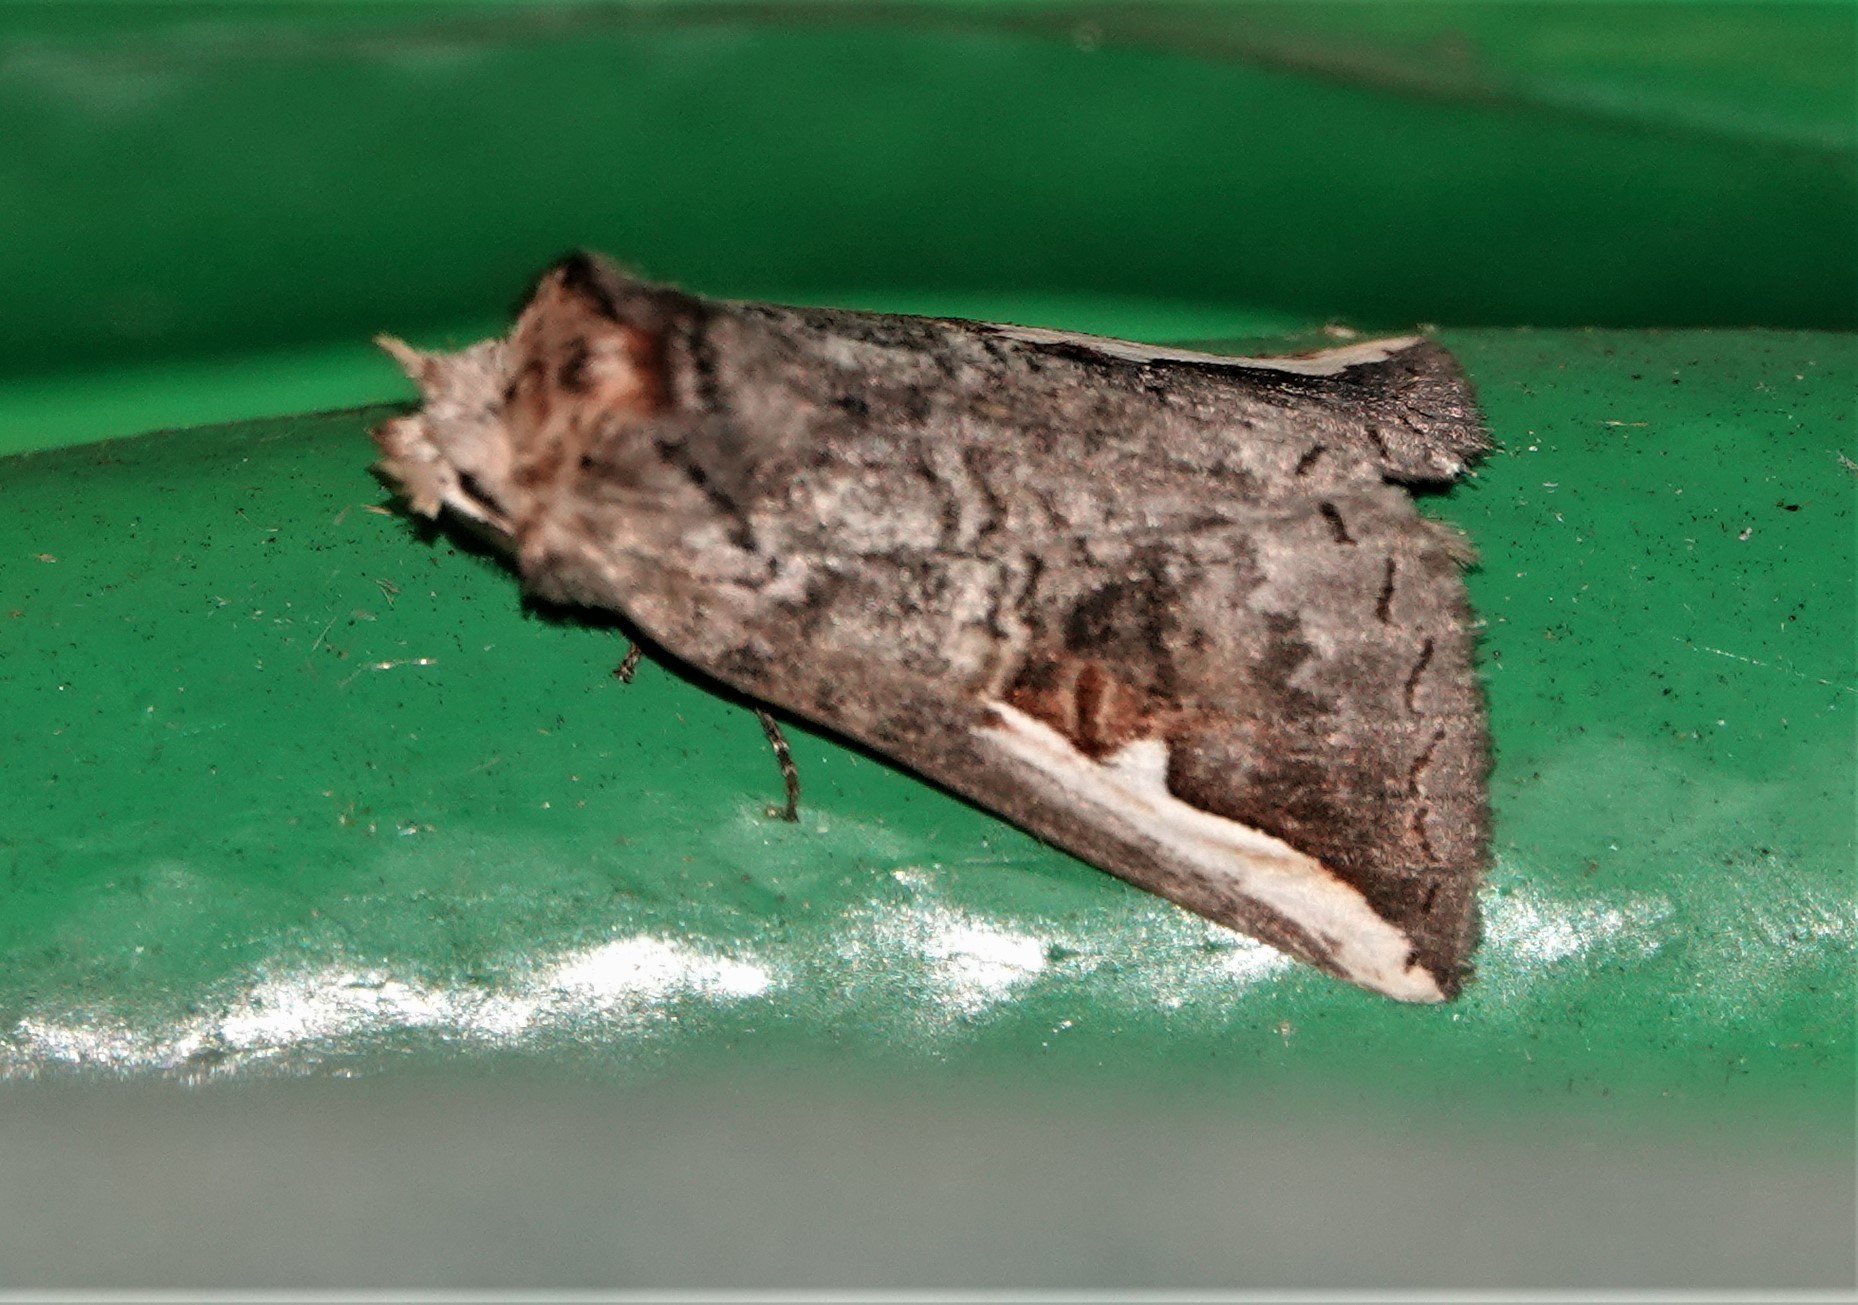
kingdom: Animalia
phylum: Arthropoda
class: Insecta
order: Lepidoptera
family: Notodontidae
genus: Symmerista
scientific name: Symmerista
